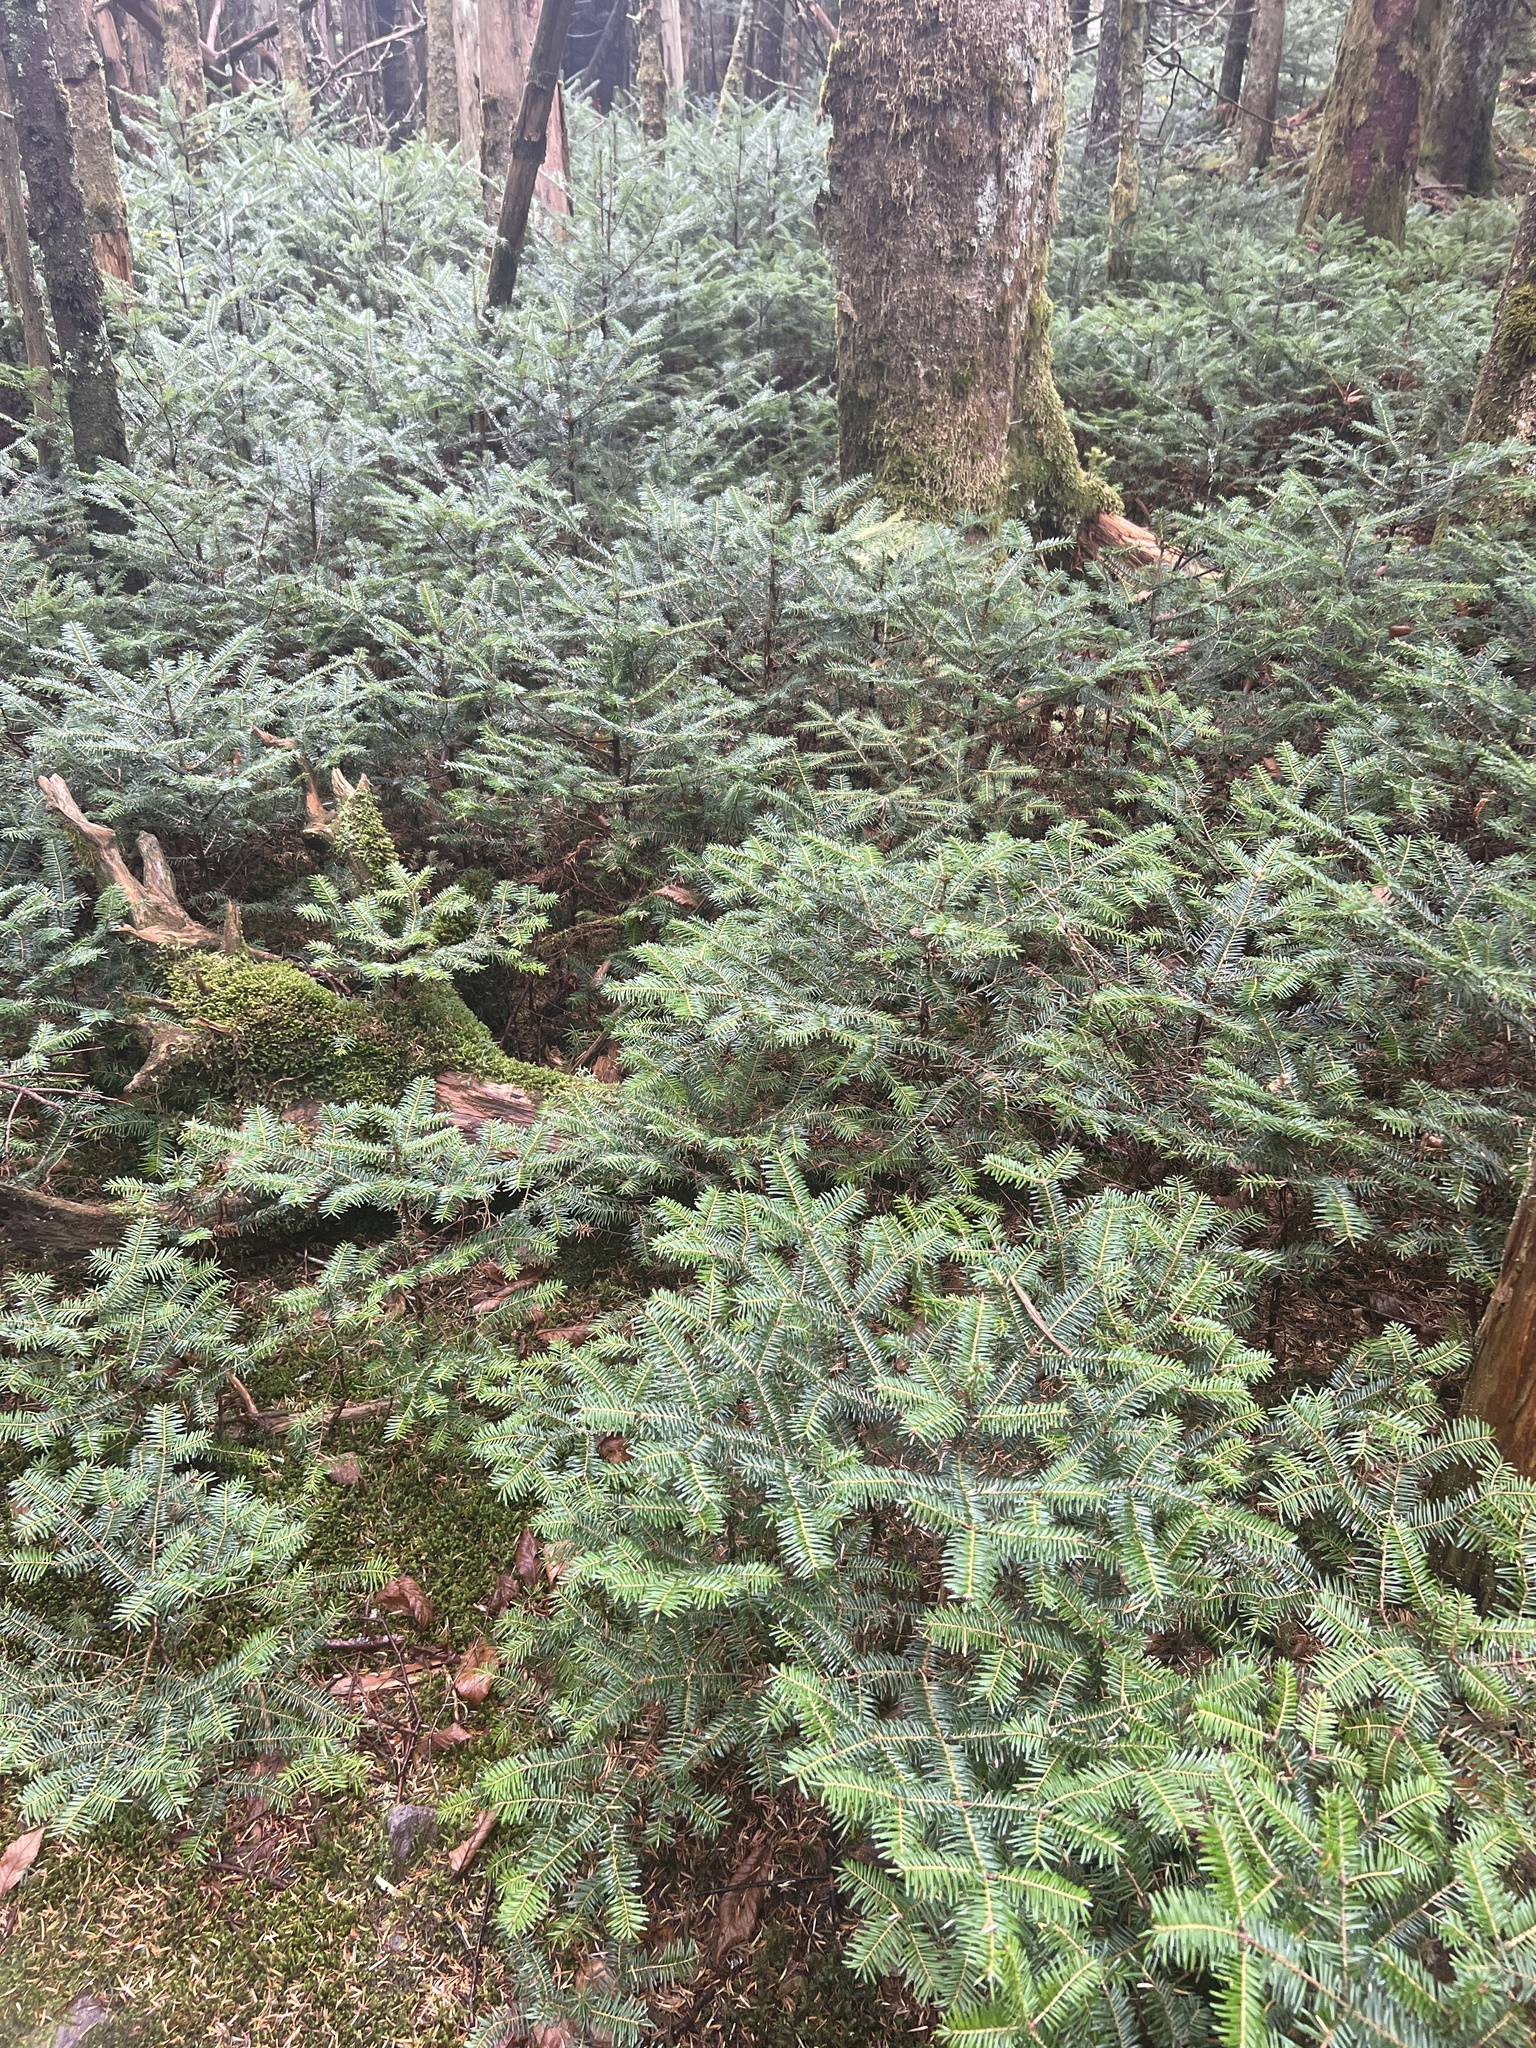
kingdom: Plantae
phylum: Tracheophyta
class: Pinopsida
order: Pinales
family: Pinaceae
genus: Abies
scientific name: Abies fraseri
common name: Fraser fir
